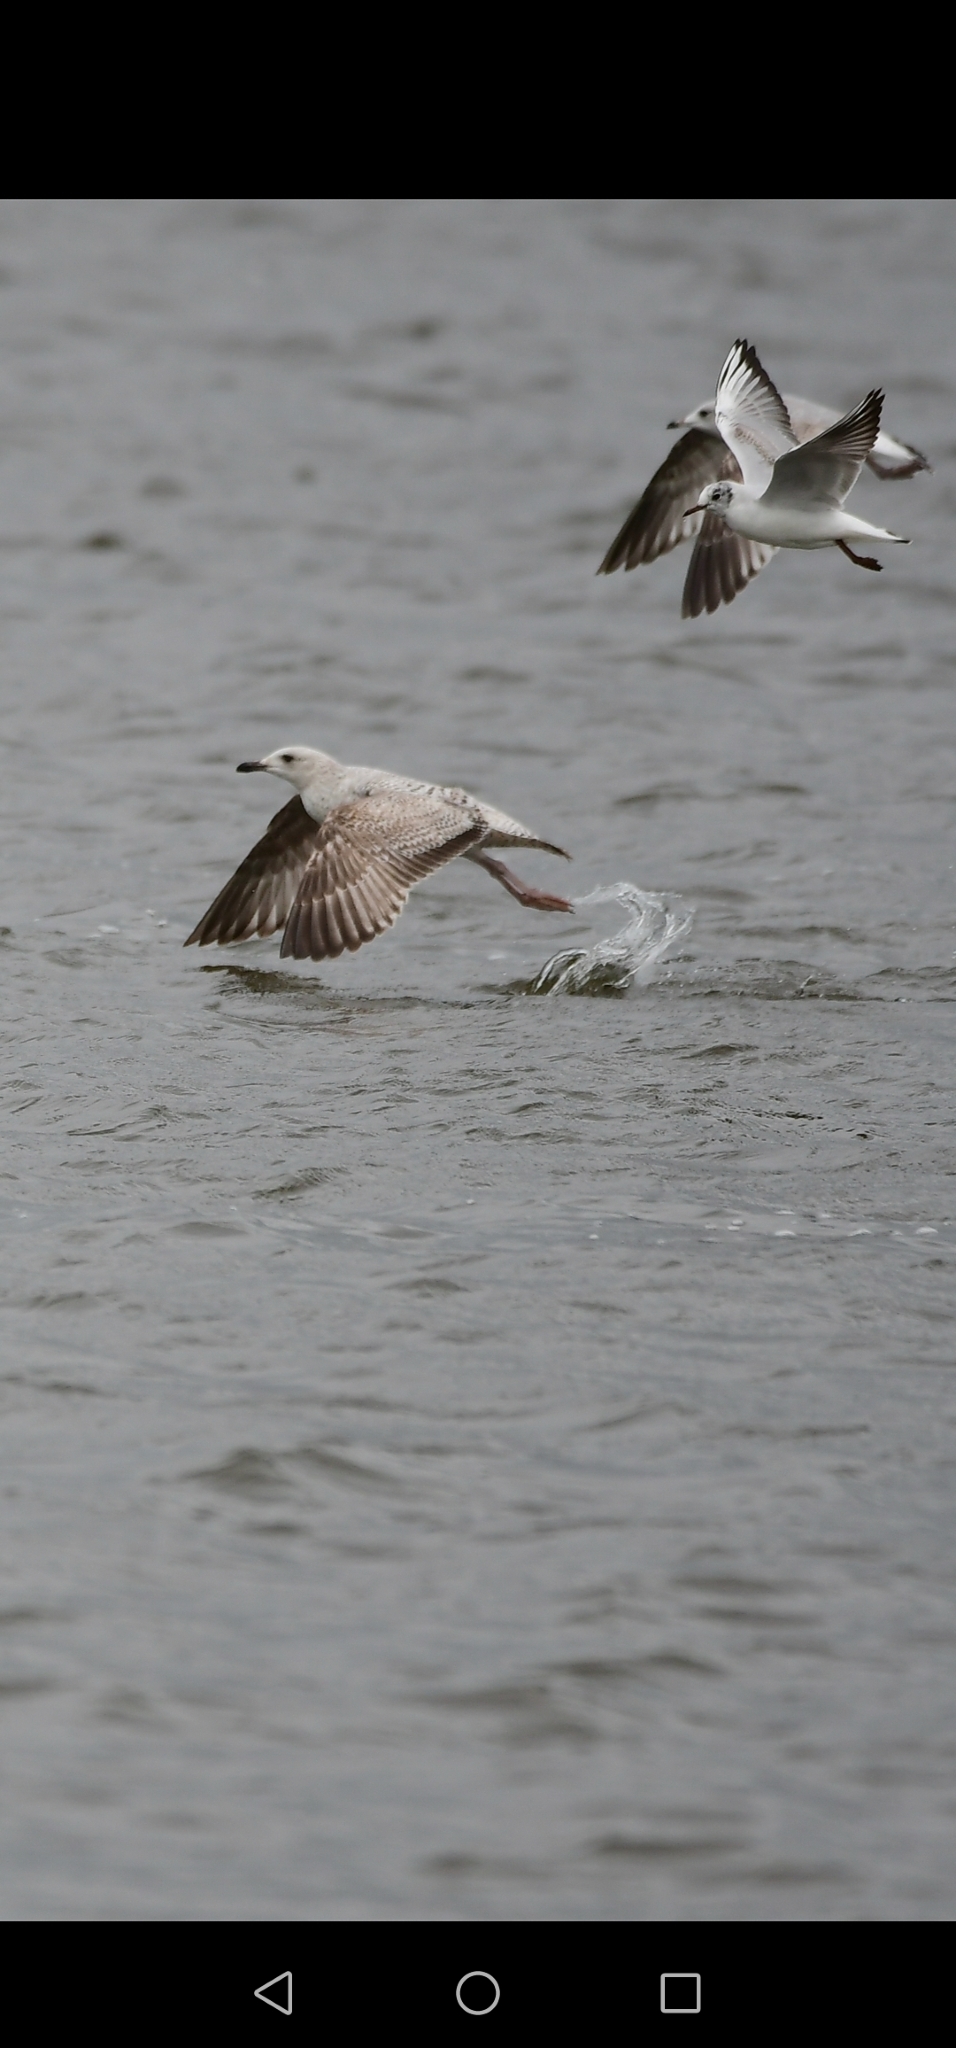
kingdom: Animalia
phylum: Chordata
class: Aves
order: Charadriiformes
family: Laridae
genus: Larus
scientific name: Larus argentatus
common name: Herring gull
